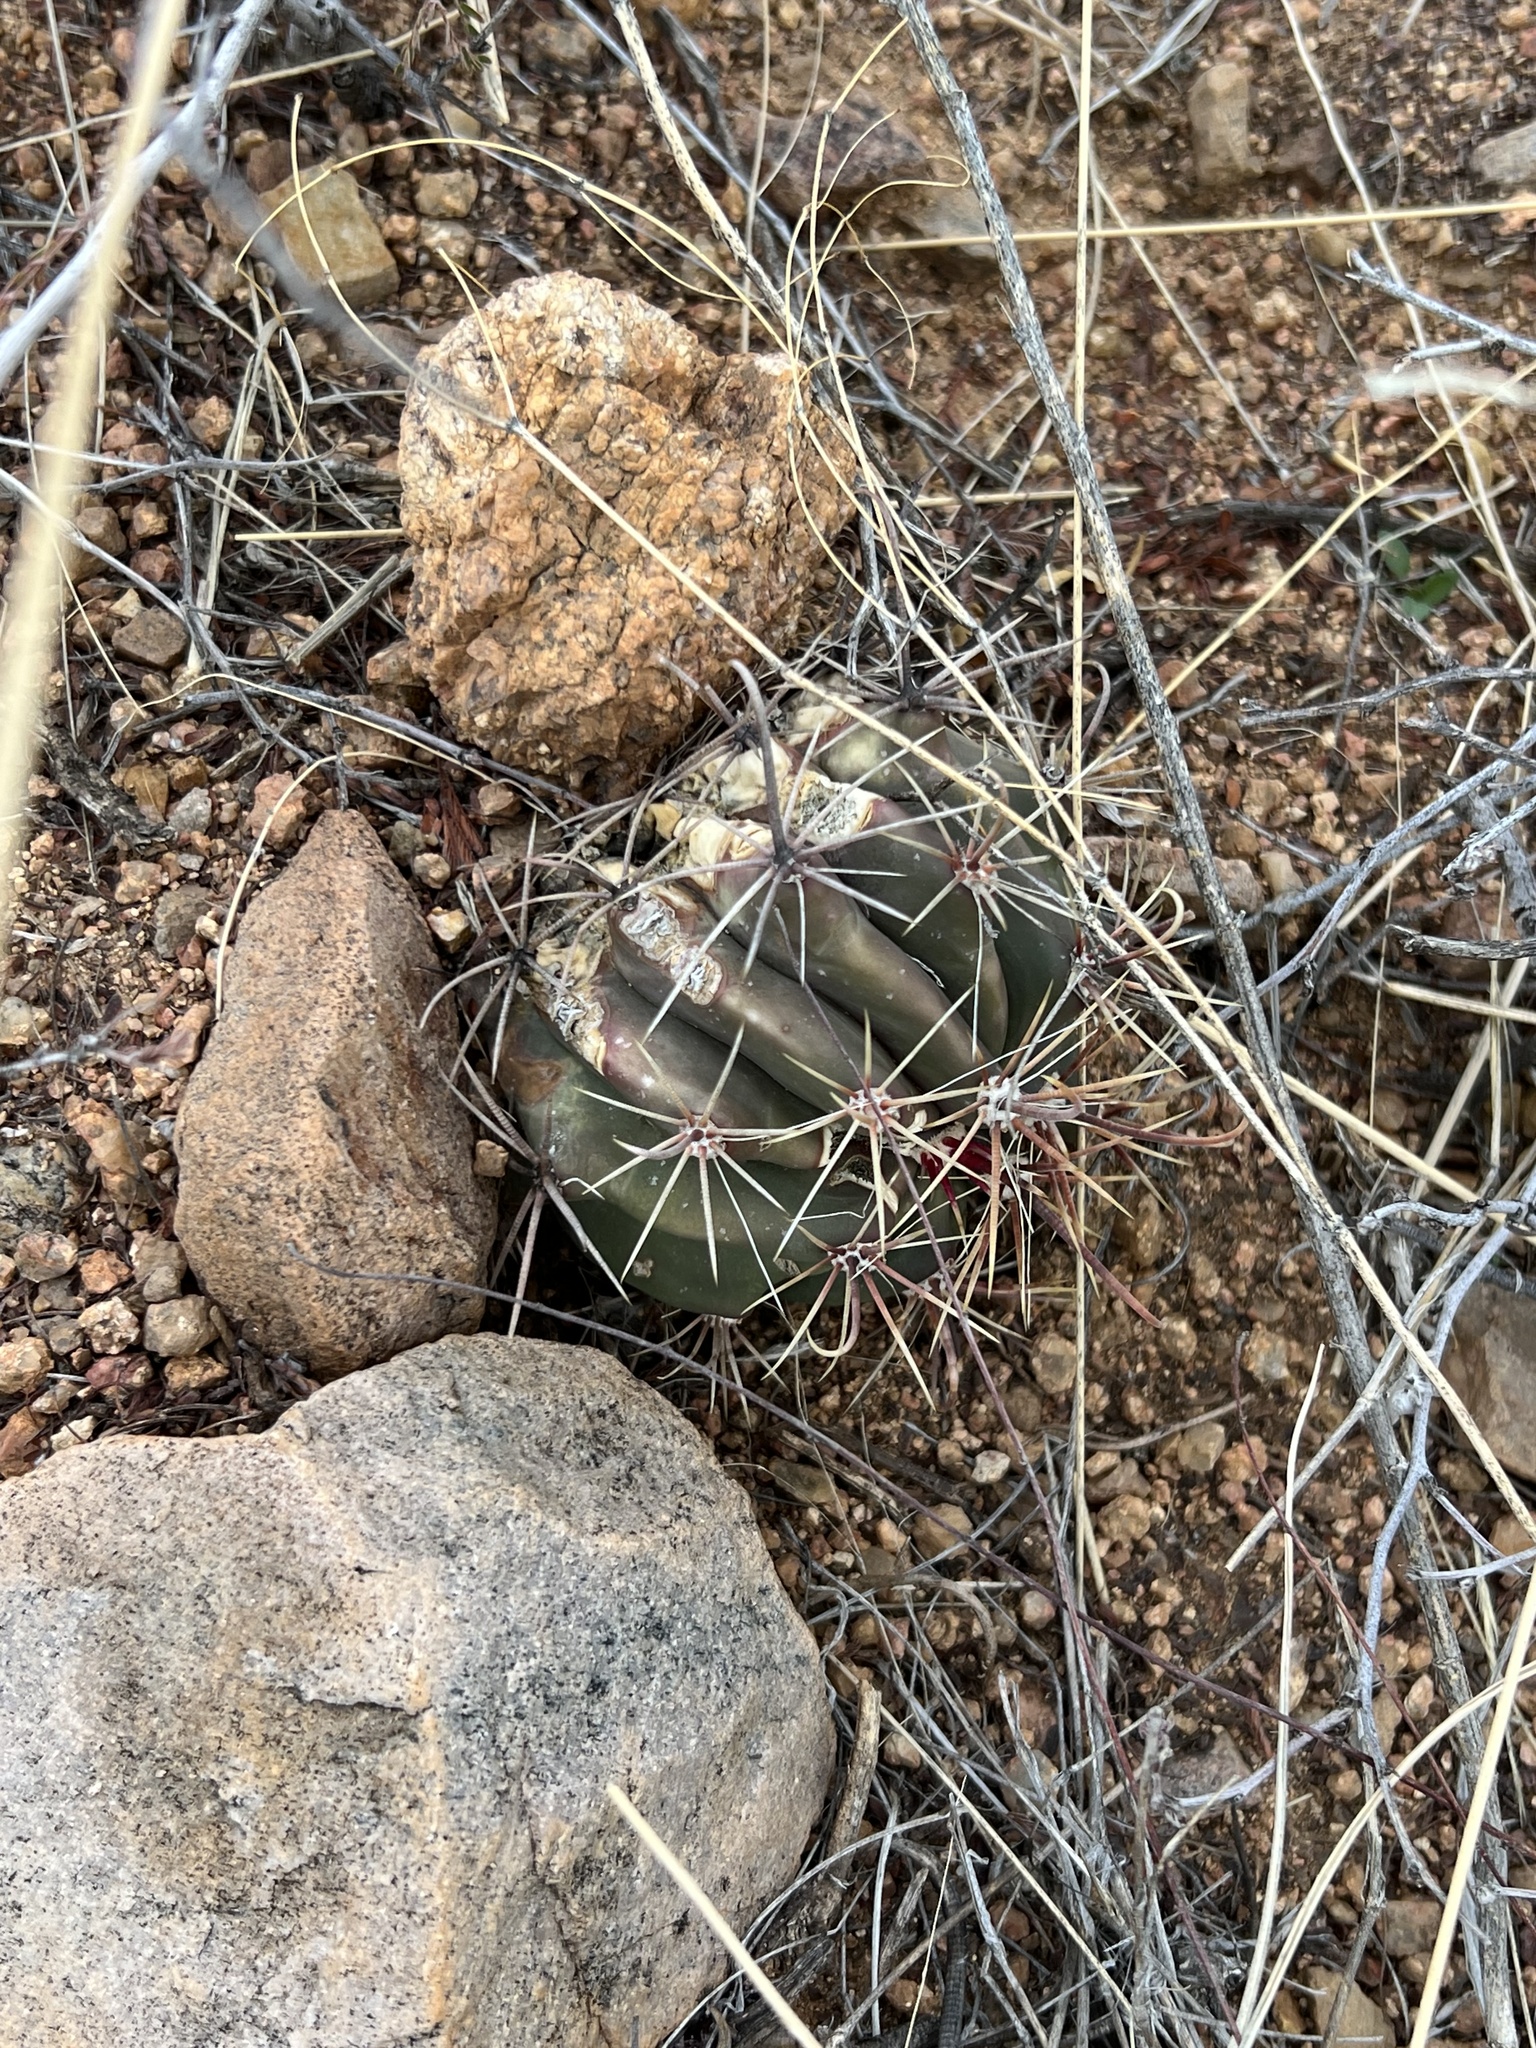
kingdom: Plantae
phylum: Tracheophyta
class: Magnoliopsida
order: Caryophyllales
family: Cactaceae
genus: Ferocactus
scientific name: Ferocactus wislizeni
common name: Candy barrel cactus
